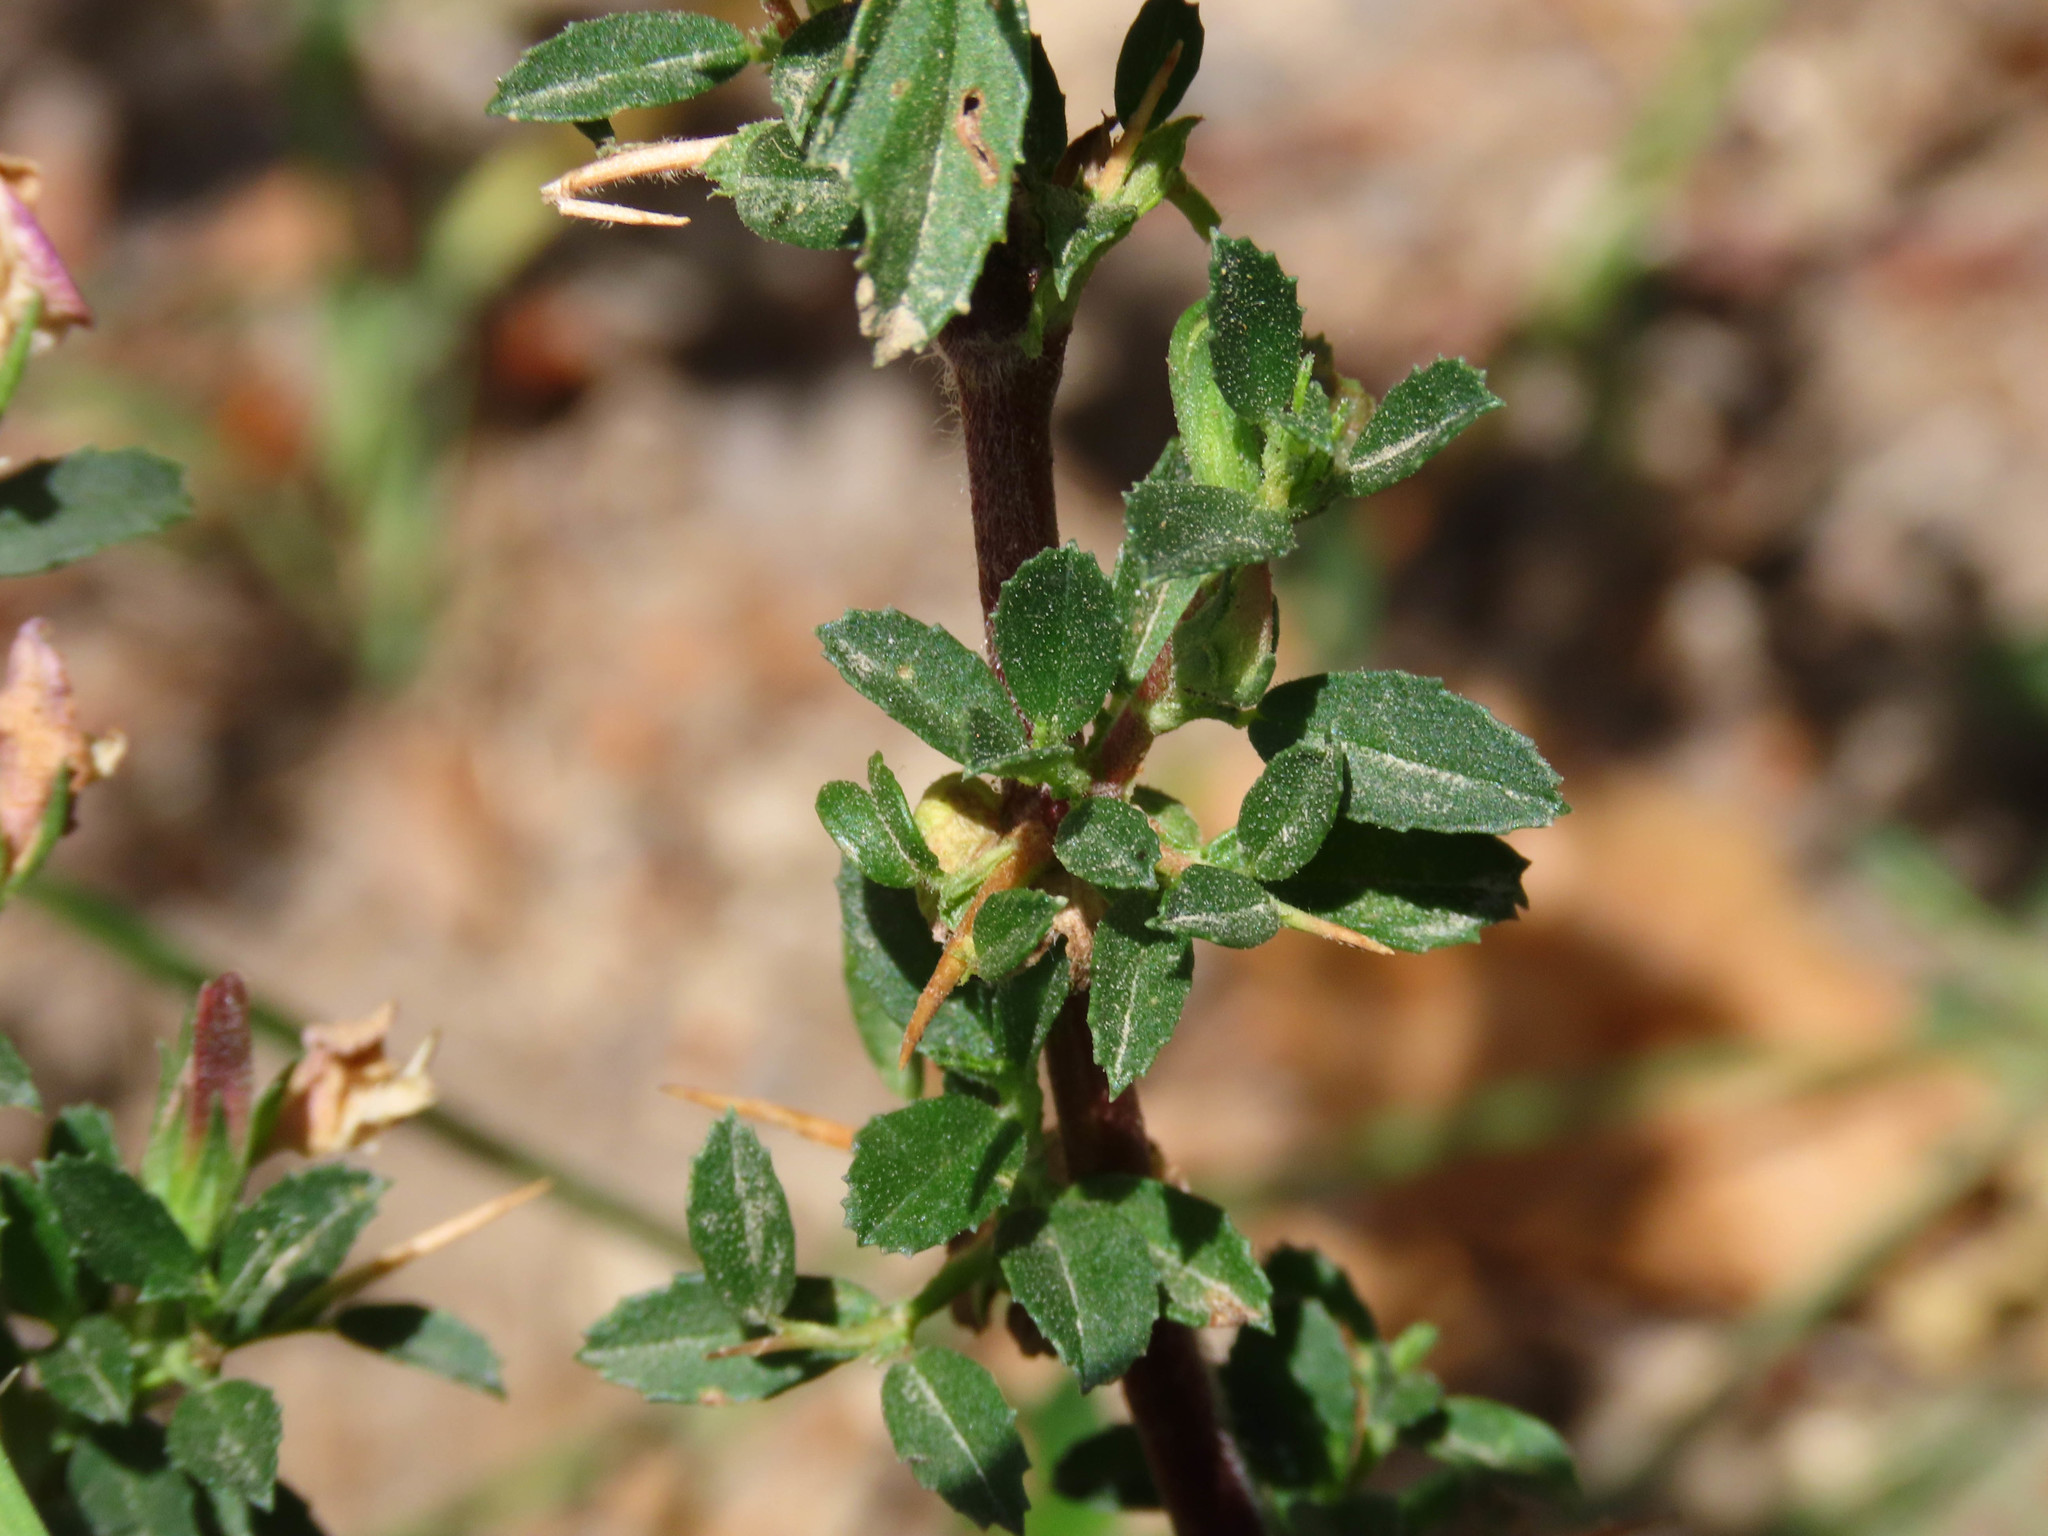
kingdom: Plantae
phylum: Tracheophyta
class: Magnoliopsida
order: Fabales
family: Fabaceae
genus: Ononis
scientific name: Ononis spinosa
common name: Spiny restharrow
